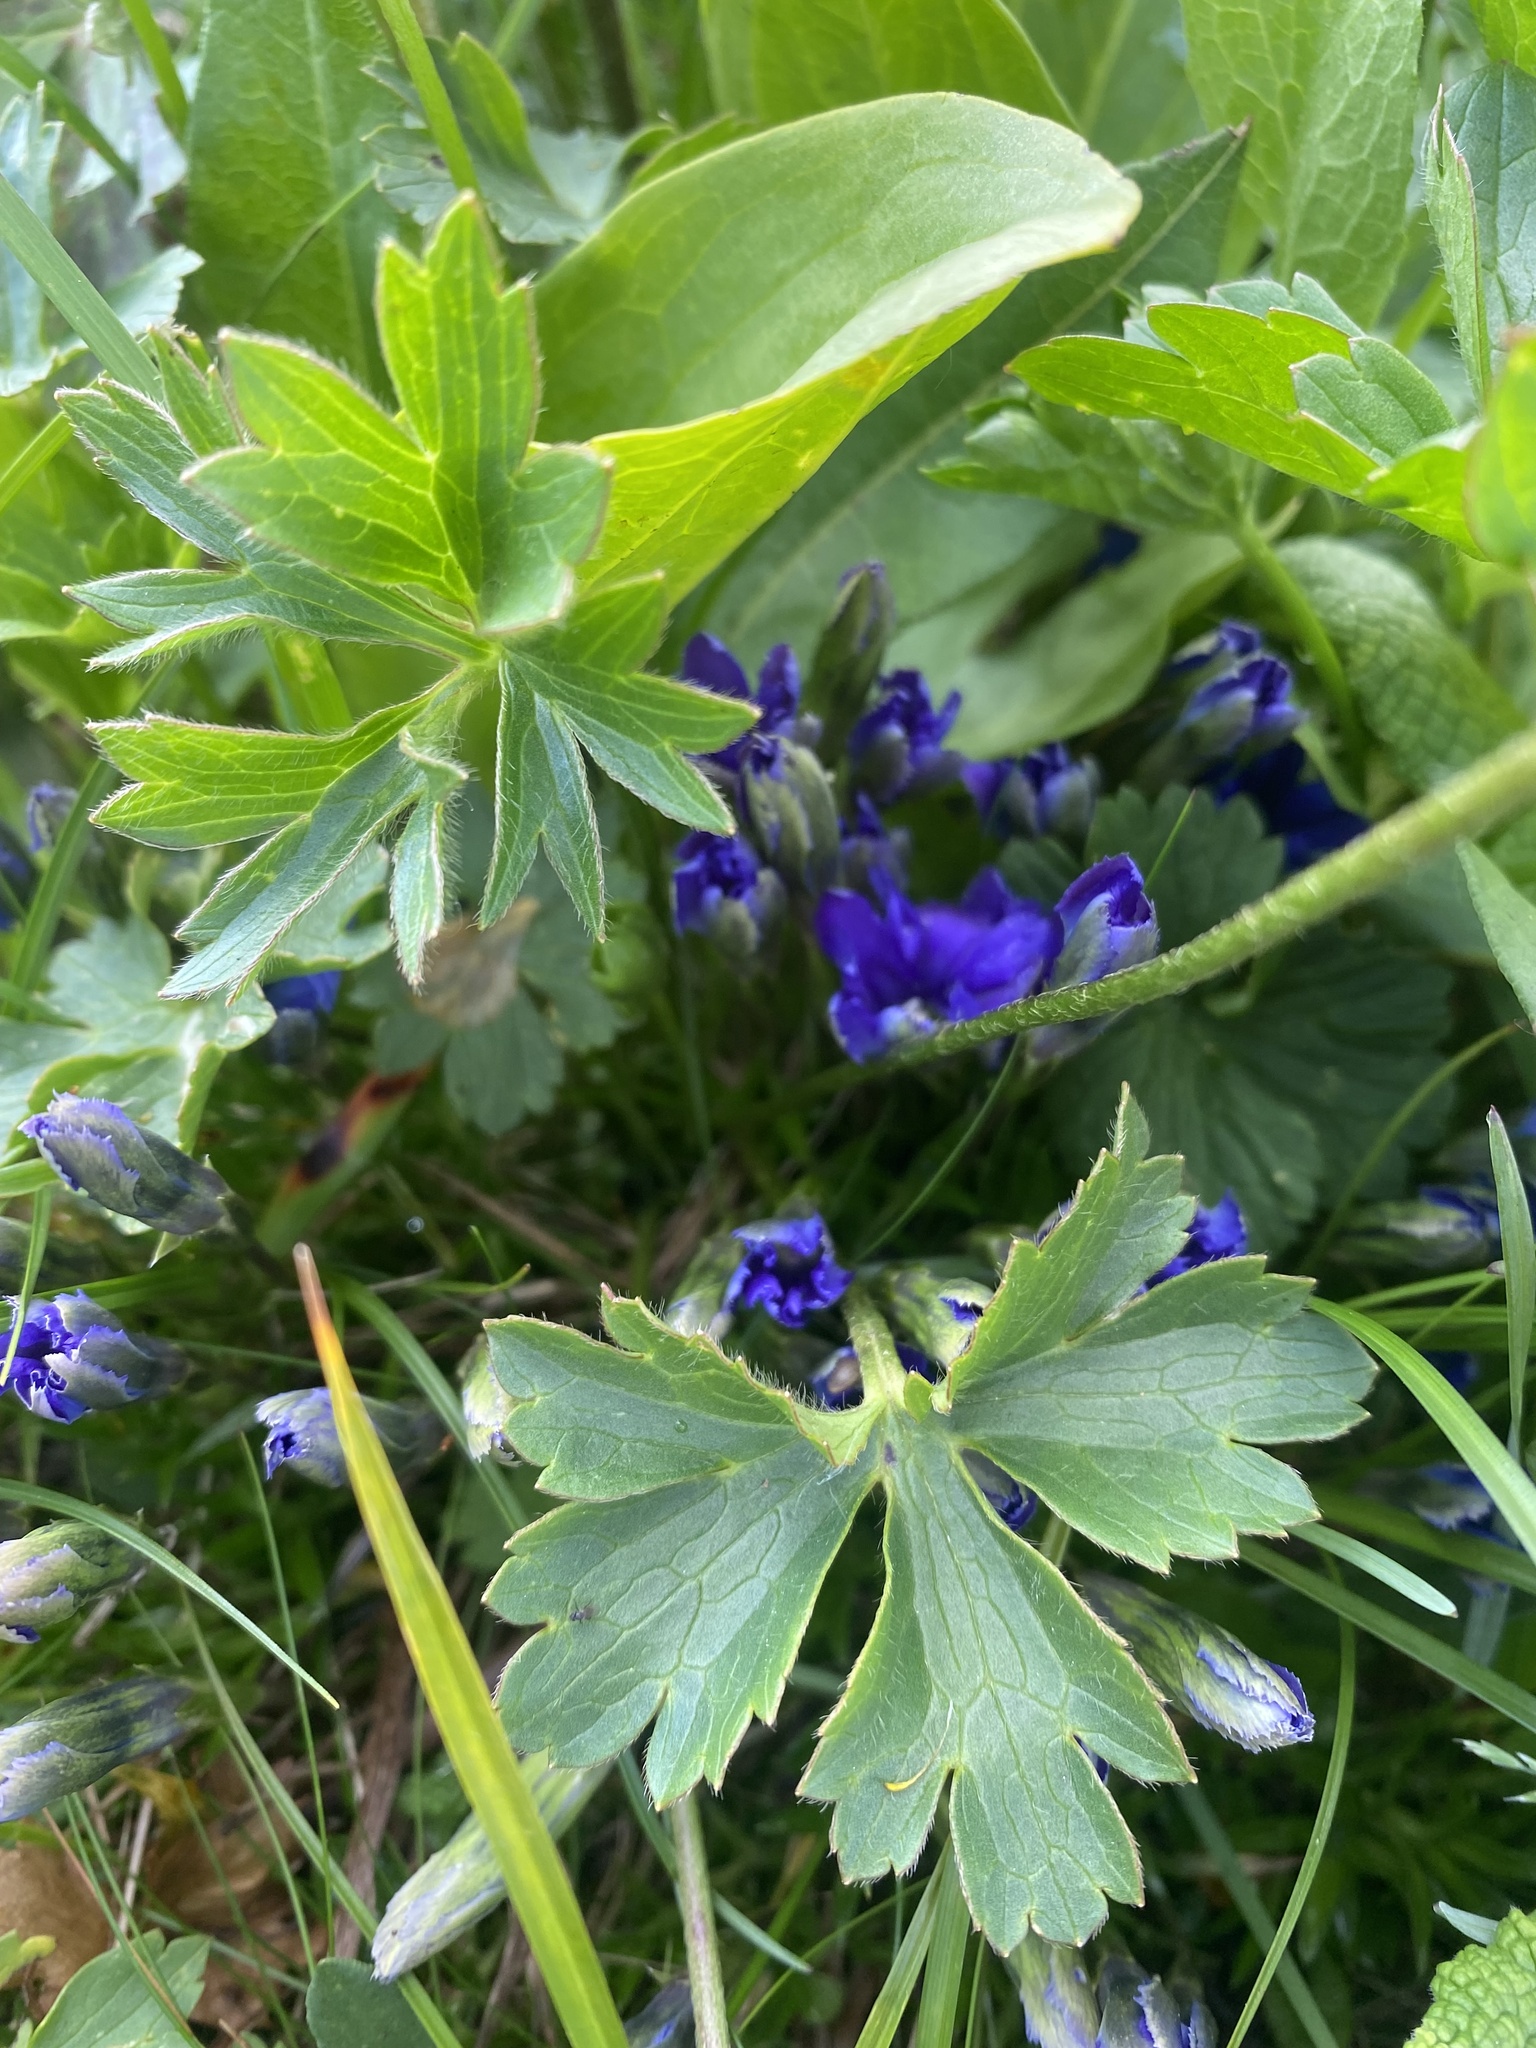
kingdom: Plantae
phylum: Tracheophyta
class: Magnoliopsida
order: Gentianales
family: Gentianaceae
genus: Gentiana
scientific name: Gentiana dshimilensis
